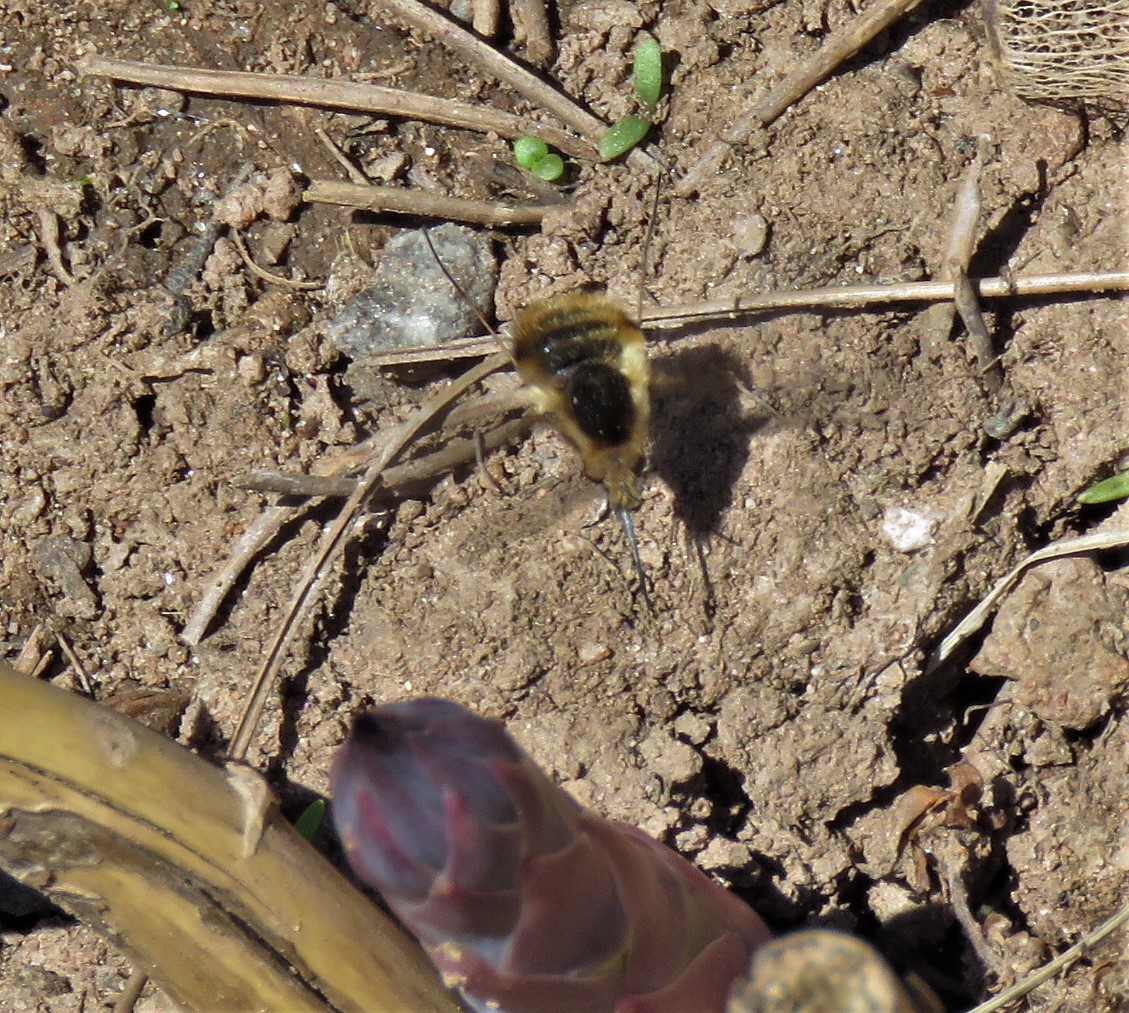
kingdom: Animalia
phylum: Arthropoda
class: Insecta
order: Diptera
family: Bombyliidae
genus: Bombylius
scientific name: Bombylius major
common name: Bee fly
